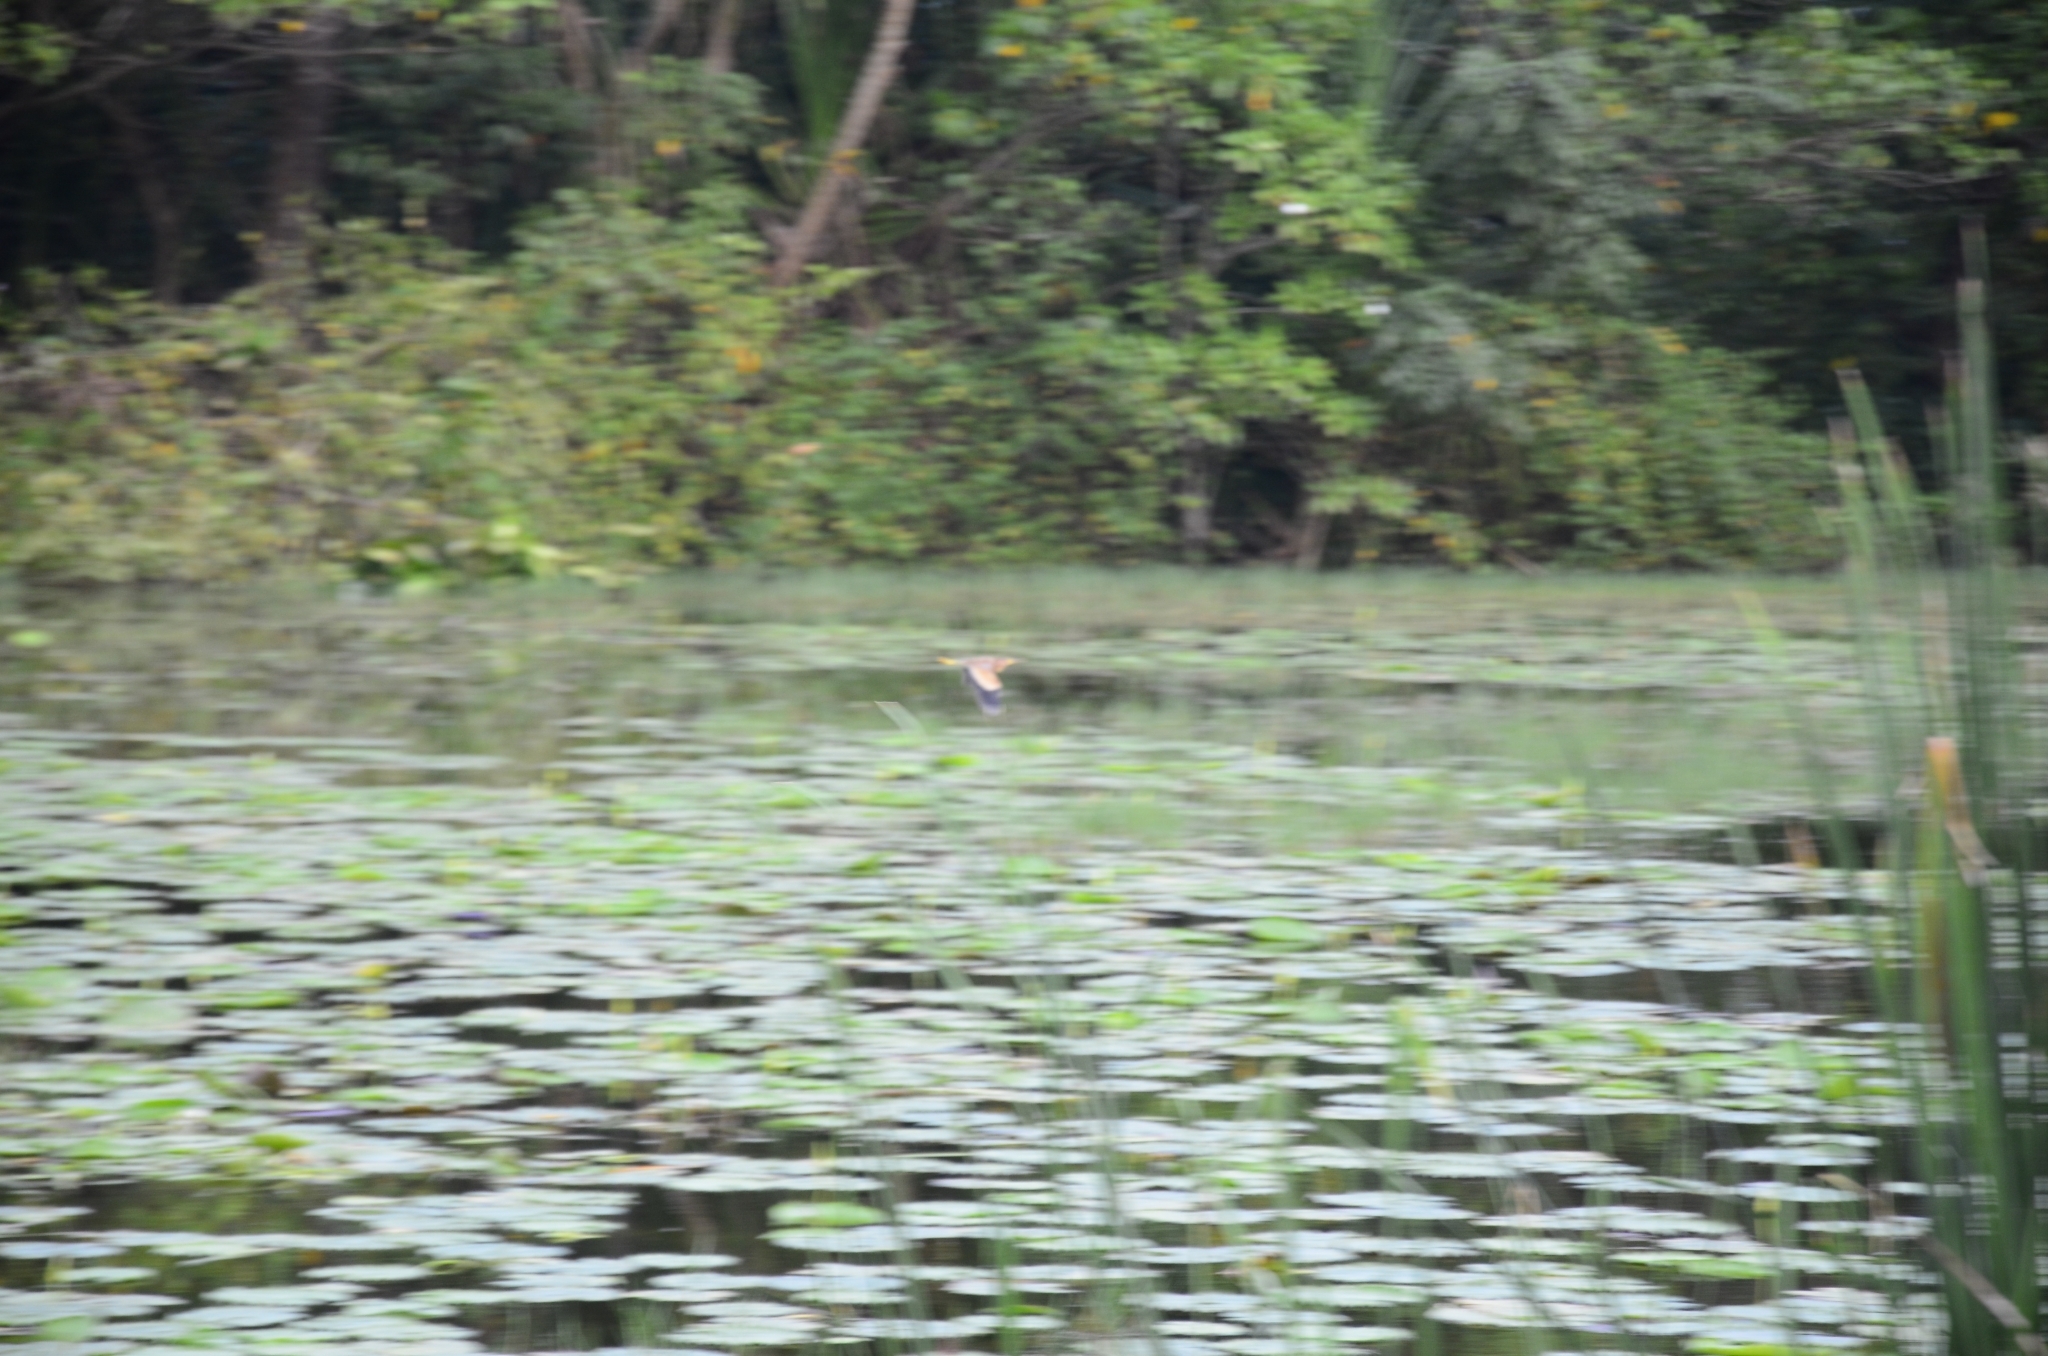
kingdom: Animalia
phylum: Chordata
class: Aves
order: Pelecaniformes
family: Ardeidae
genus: Ixobrychus
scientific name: Ixobrychus sinensis
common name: Yellow bittern
